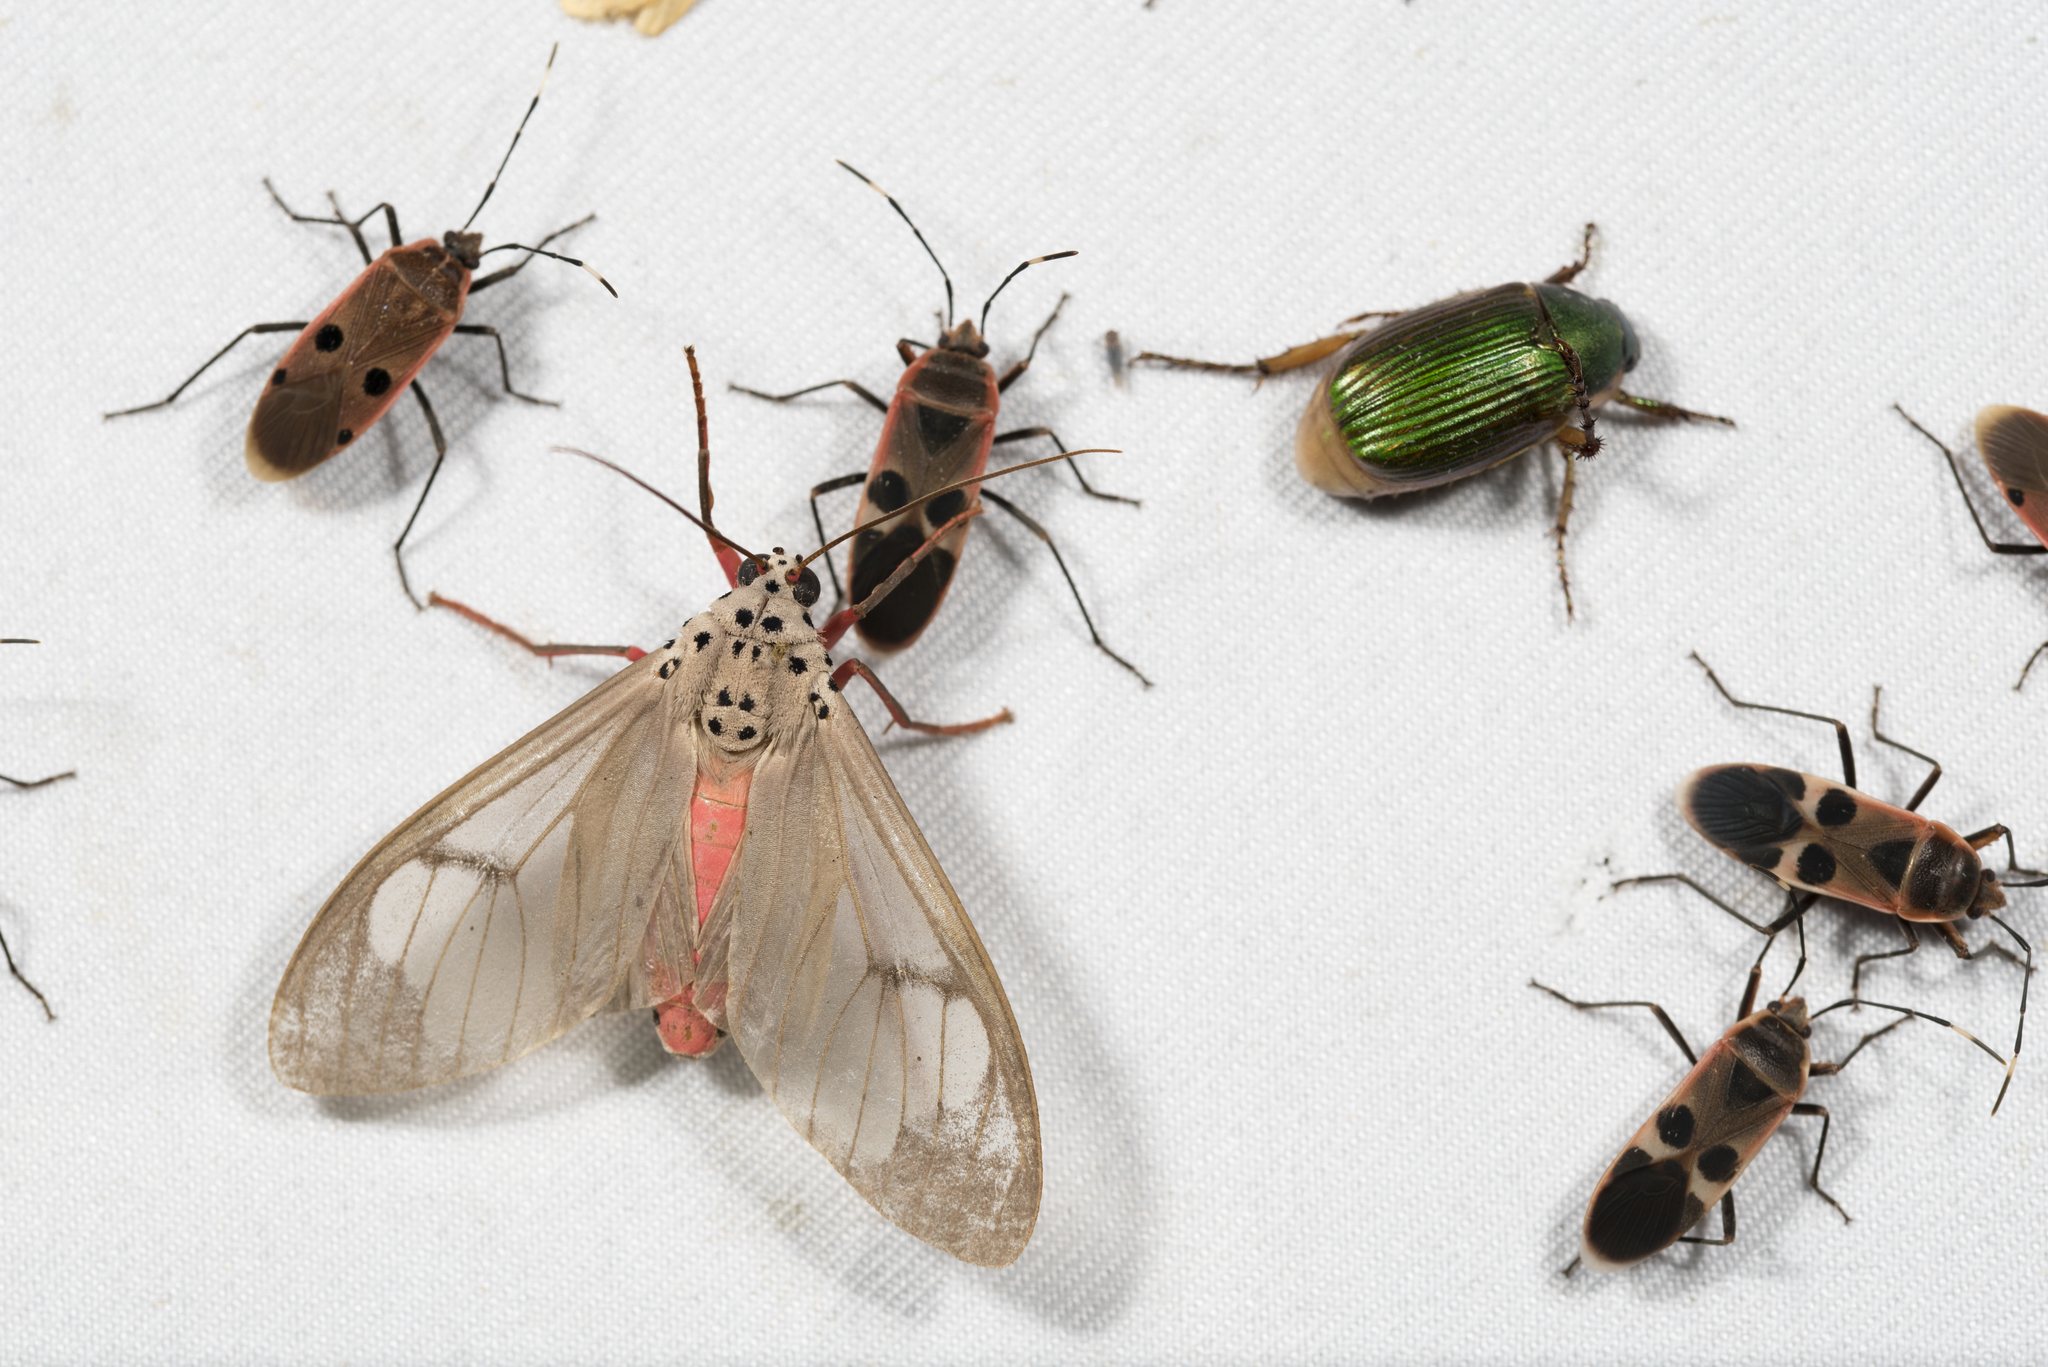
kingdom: Animalia
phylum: Arthropoda
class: Insecta
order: Lepidoptera
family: Erebidae
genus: Amerila
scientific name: Amerila astreus
